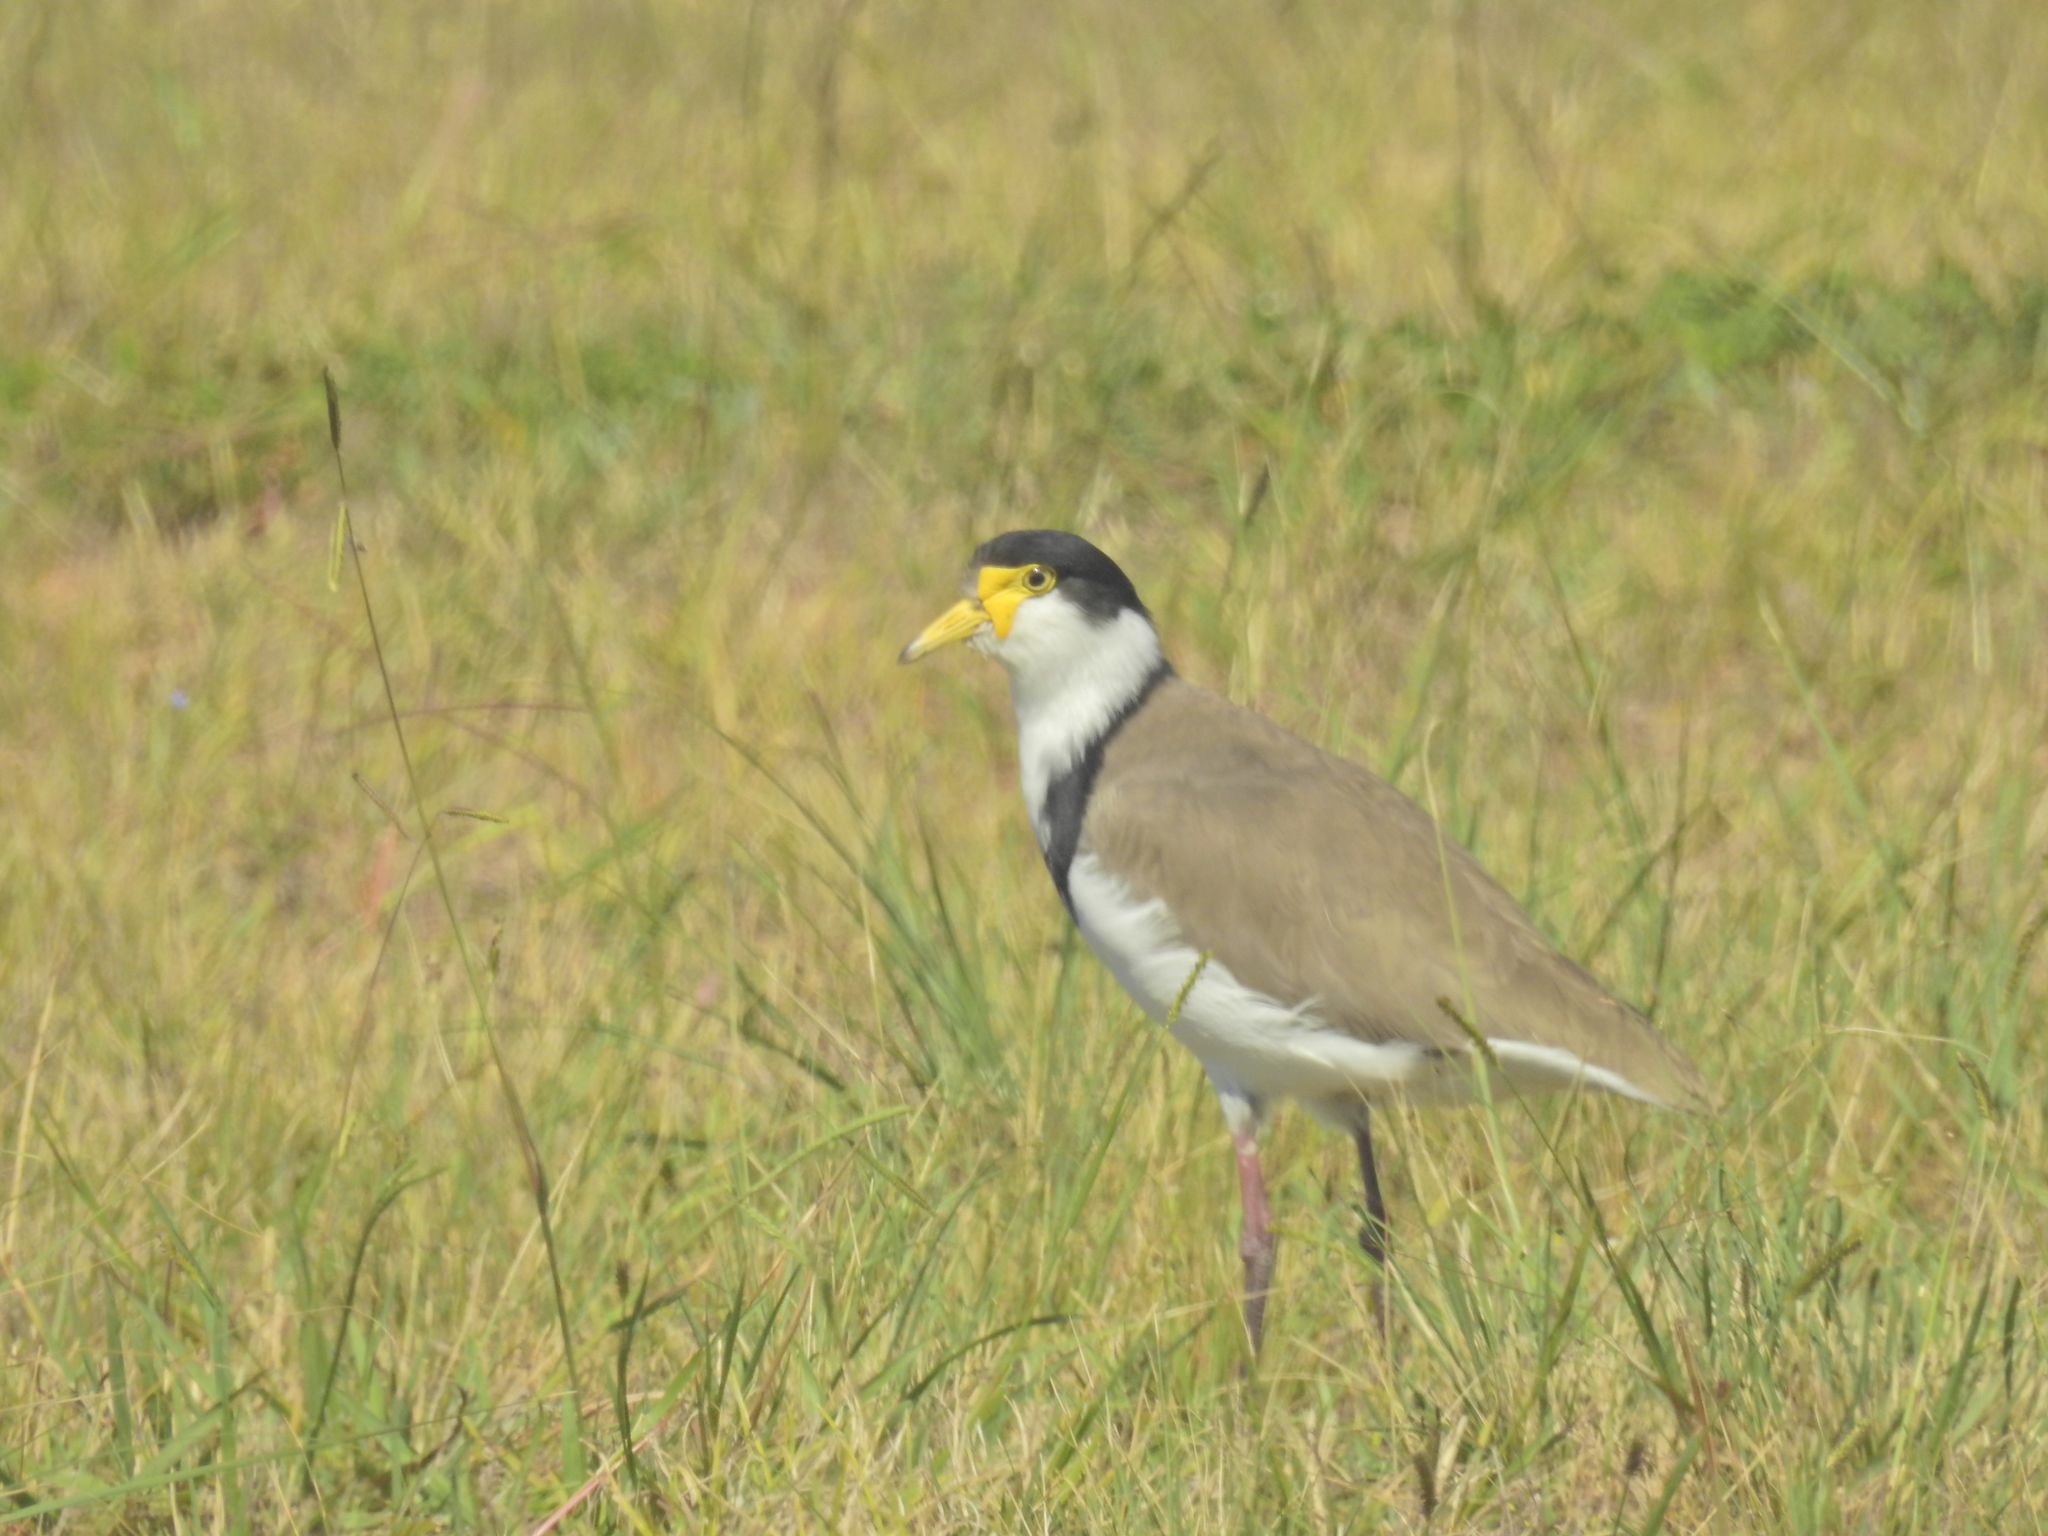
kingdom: Animalia
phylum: Chordata
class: Aves
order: Charadriiformes
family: Charadriidae
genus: Vanellus
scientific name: Vanellus miles
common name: Masked lapwing
